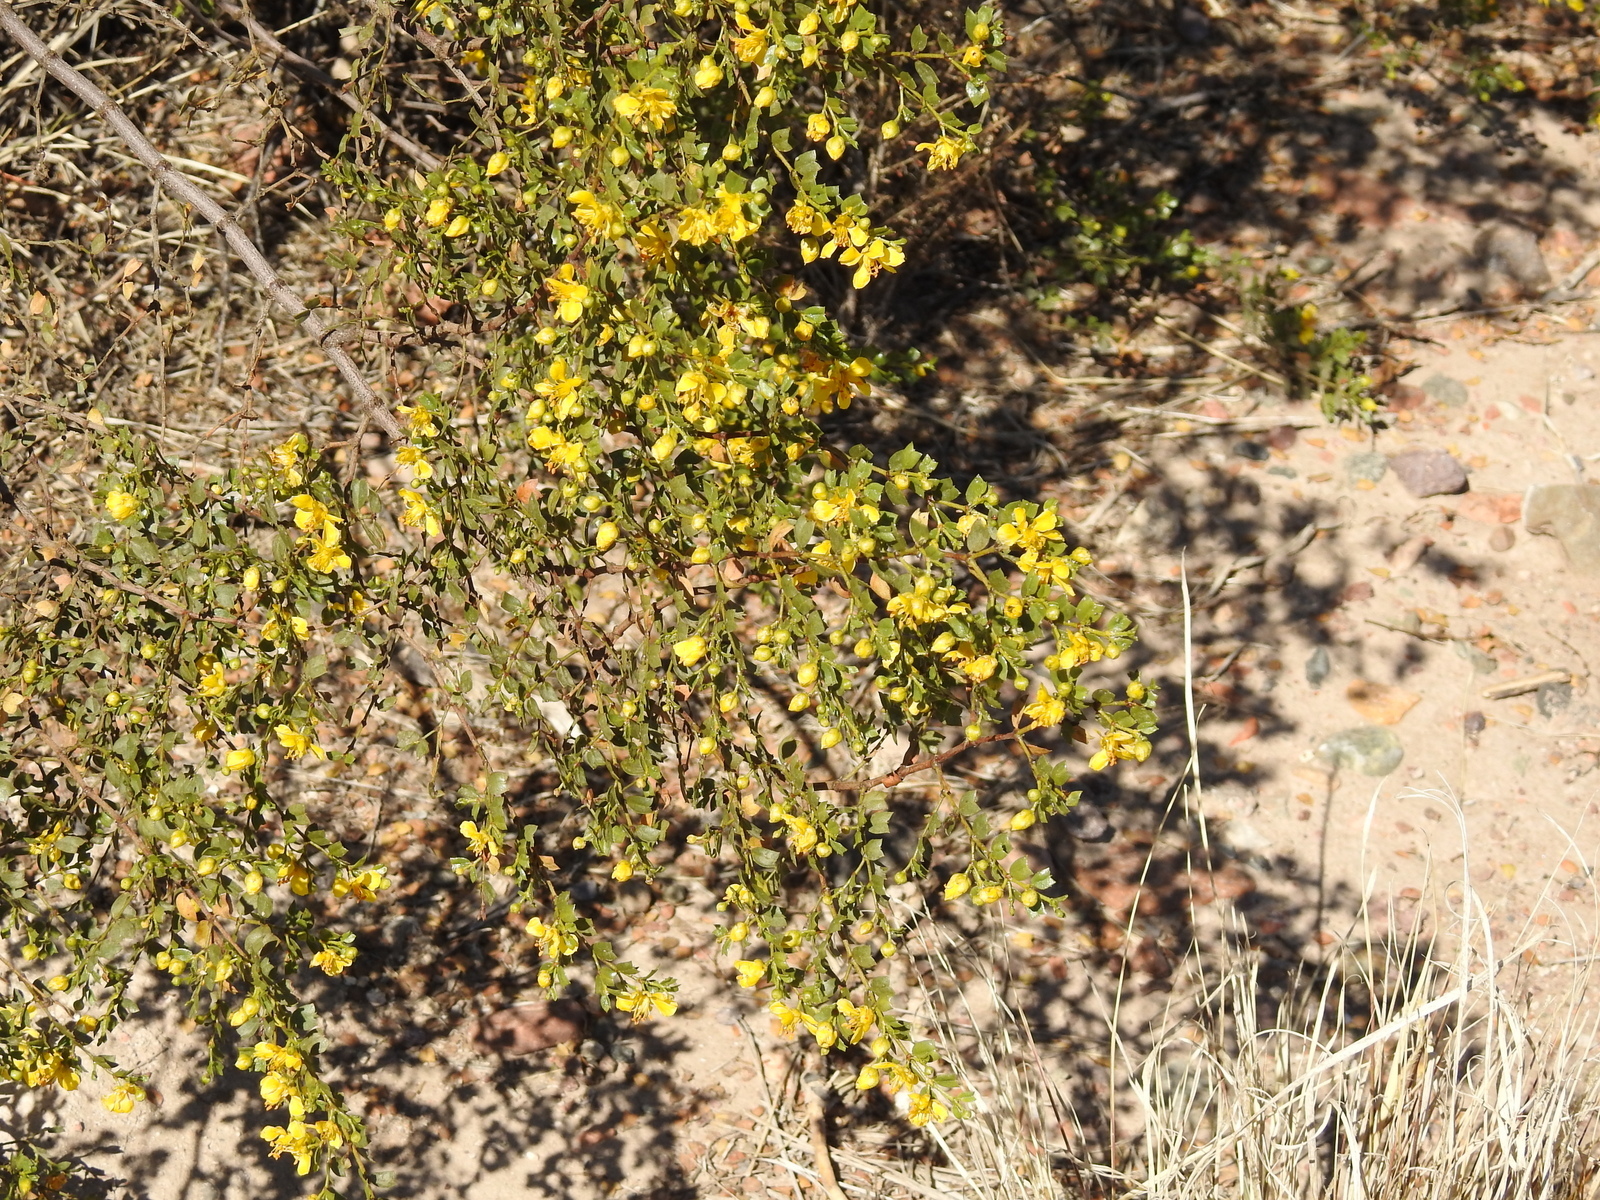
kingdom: Plantae
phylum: Tracheophyta
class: Magnoliopsida
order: Zygophyllales
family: Zygophyllaceae
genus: Larrea
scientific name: Larrea cuneifolia
